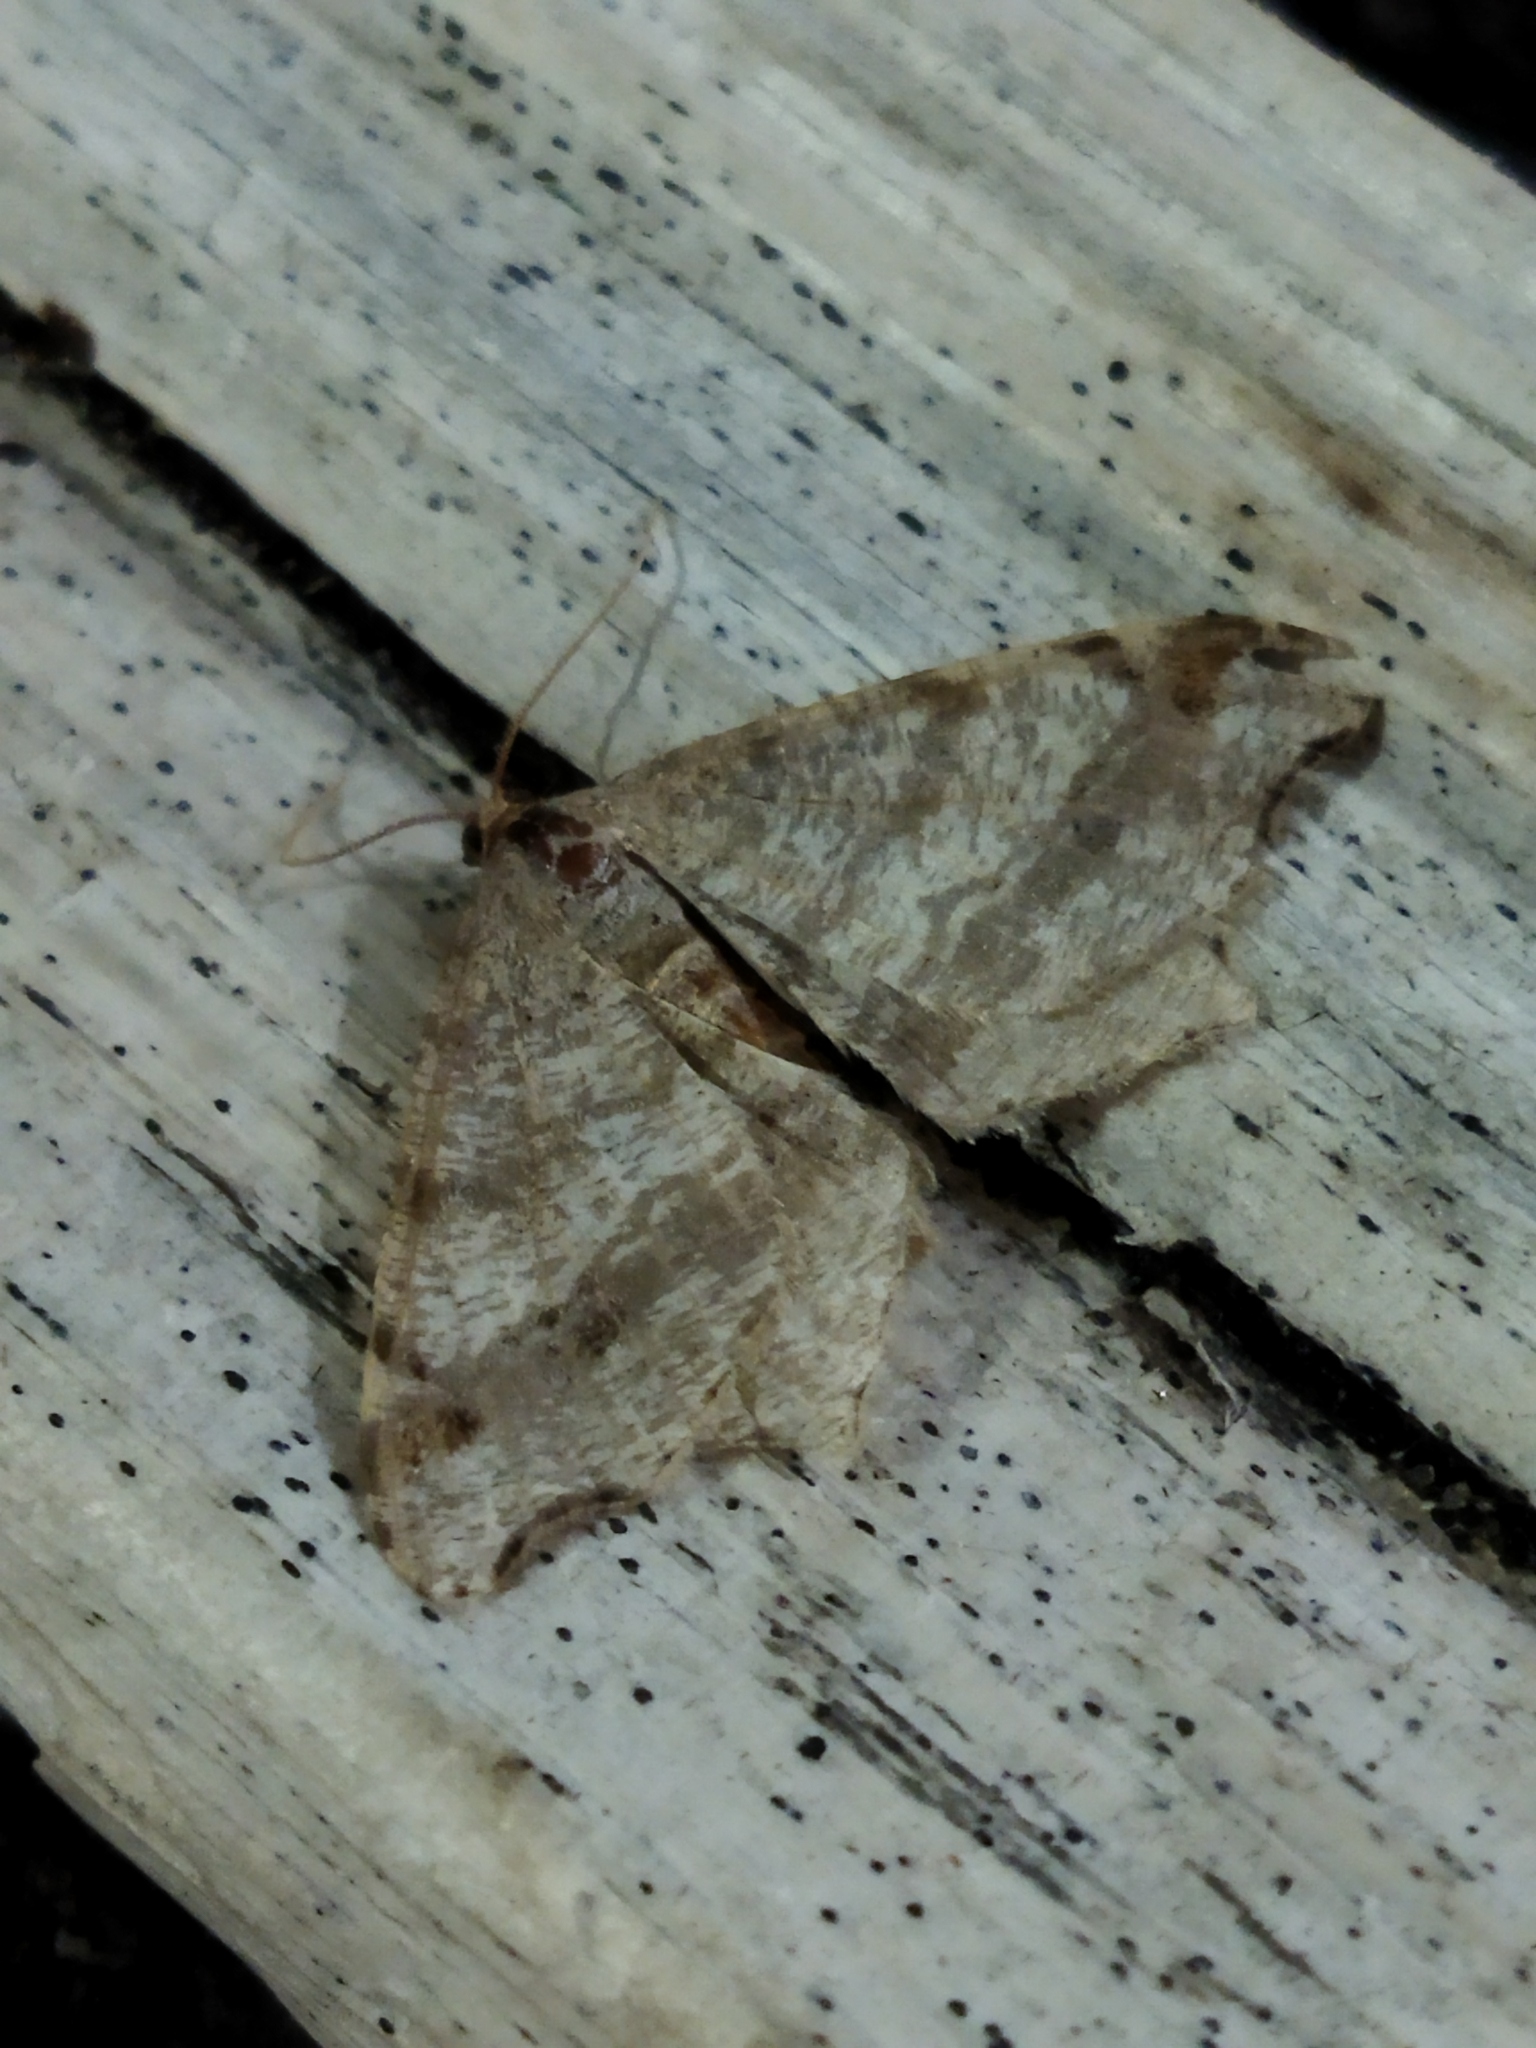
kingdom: Animalia
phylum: Arthropoda
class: Insecta
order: Lepidoptera
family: Geometridae
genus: Macaria
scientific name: Macaria alternata
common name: Sharp-angled peacock
